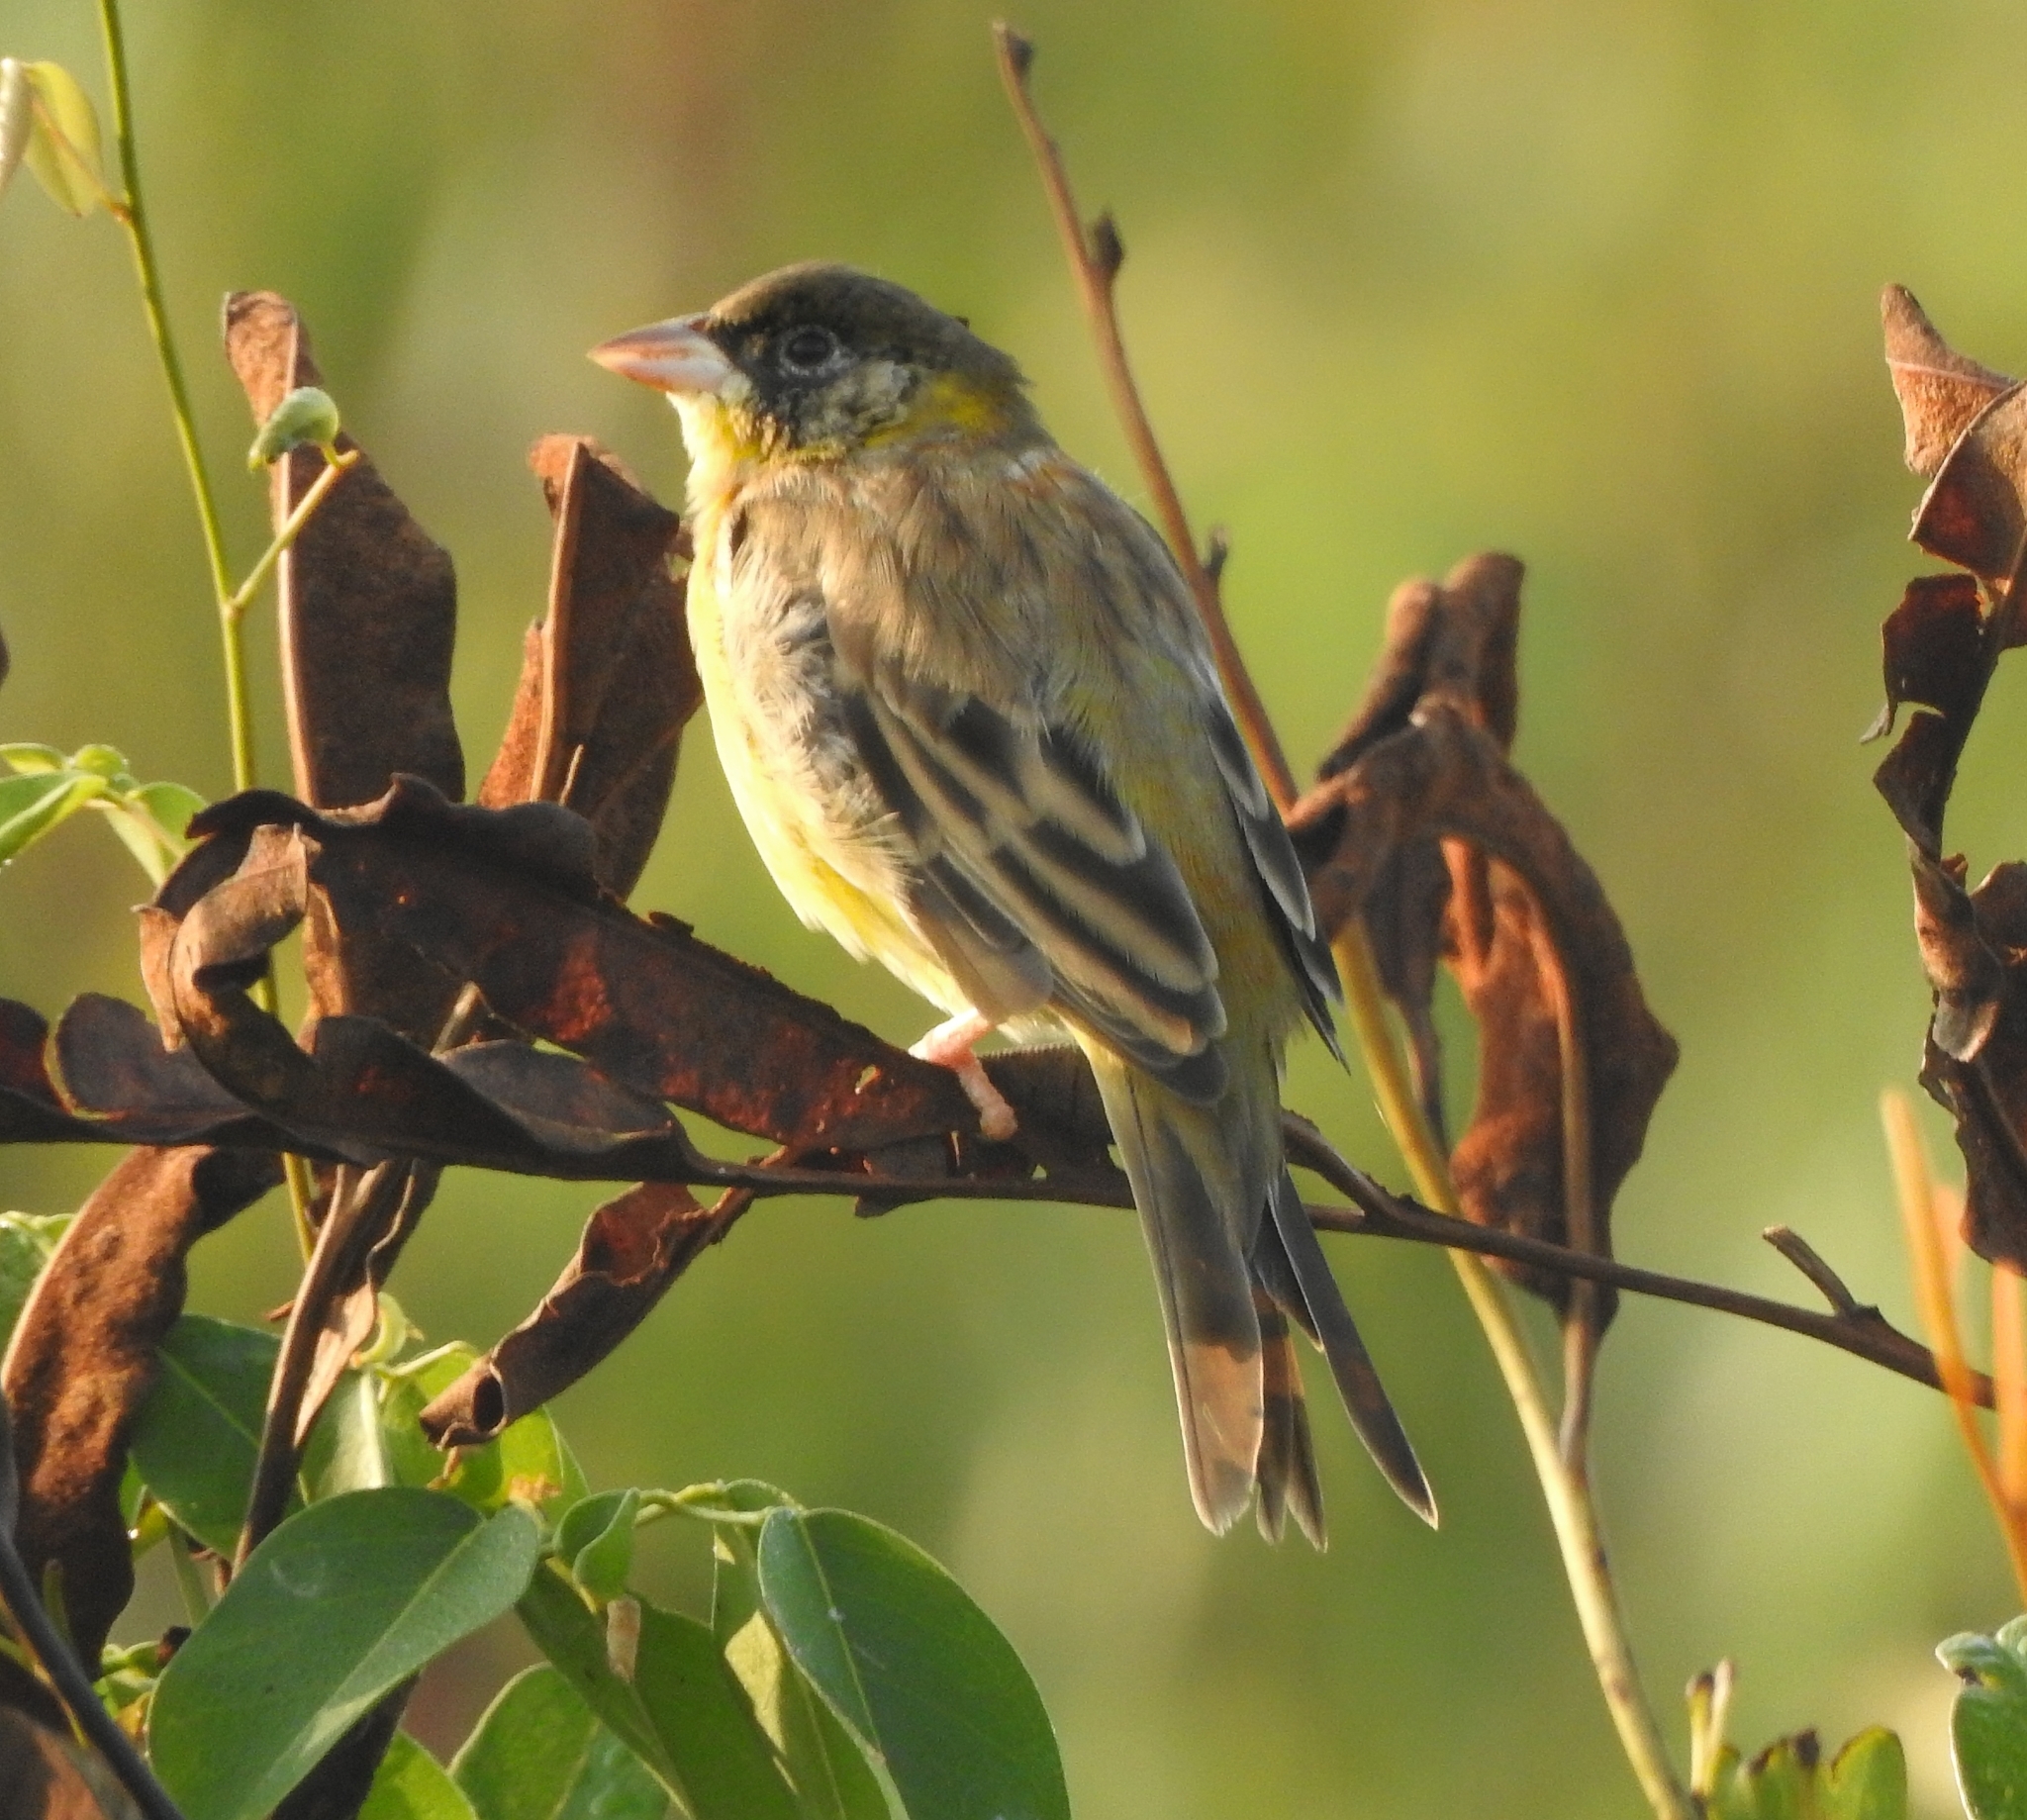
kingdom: Animalia
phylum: Chordata
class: Aves
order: Passeriformes
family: Emberizidae
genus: Emberiza
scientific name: Emberiza melanocephala
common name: Black-headed bunting
